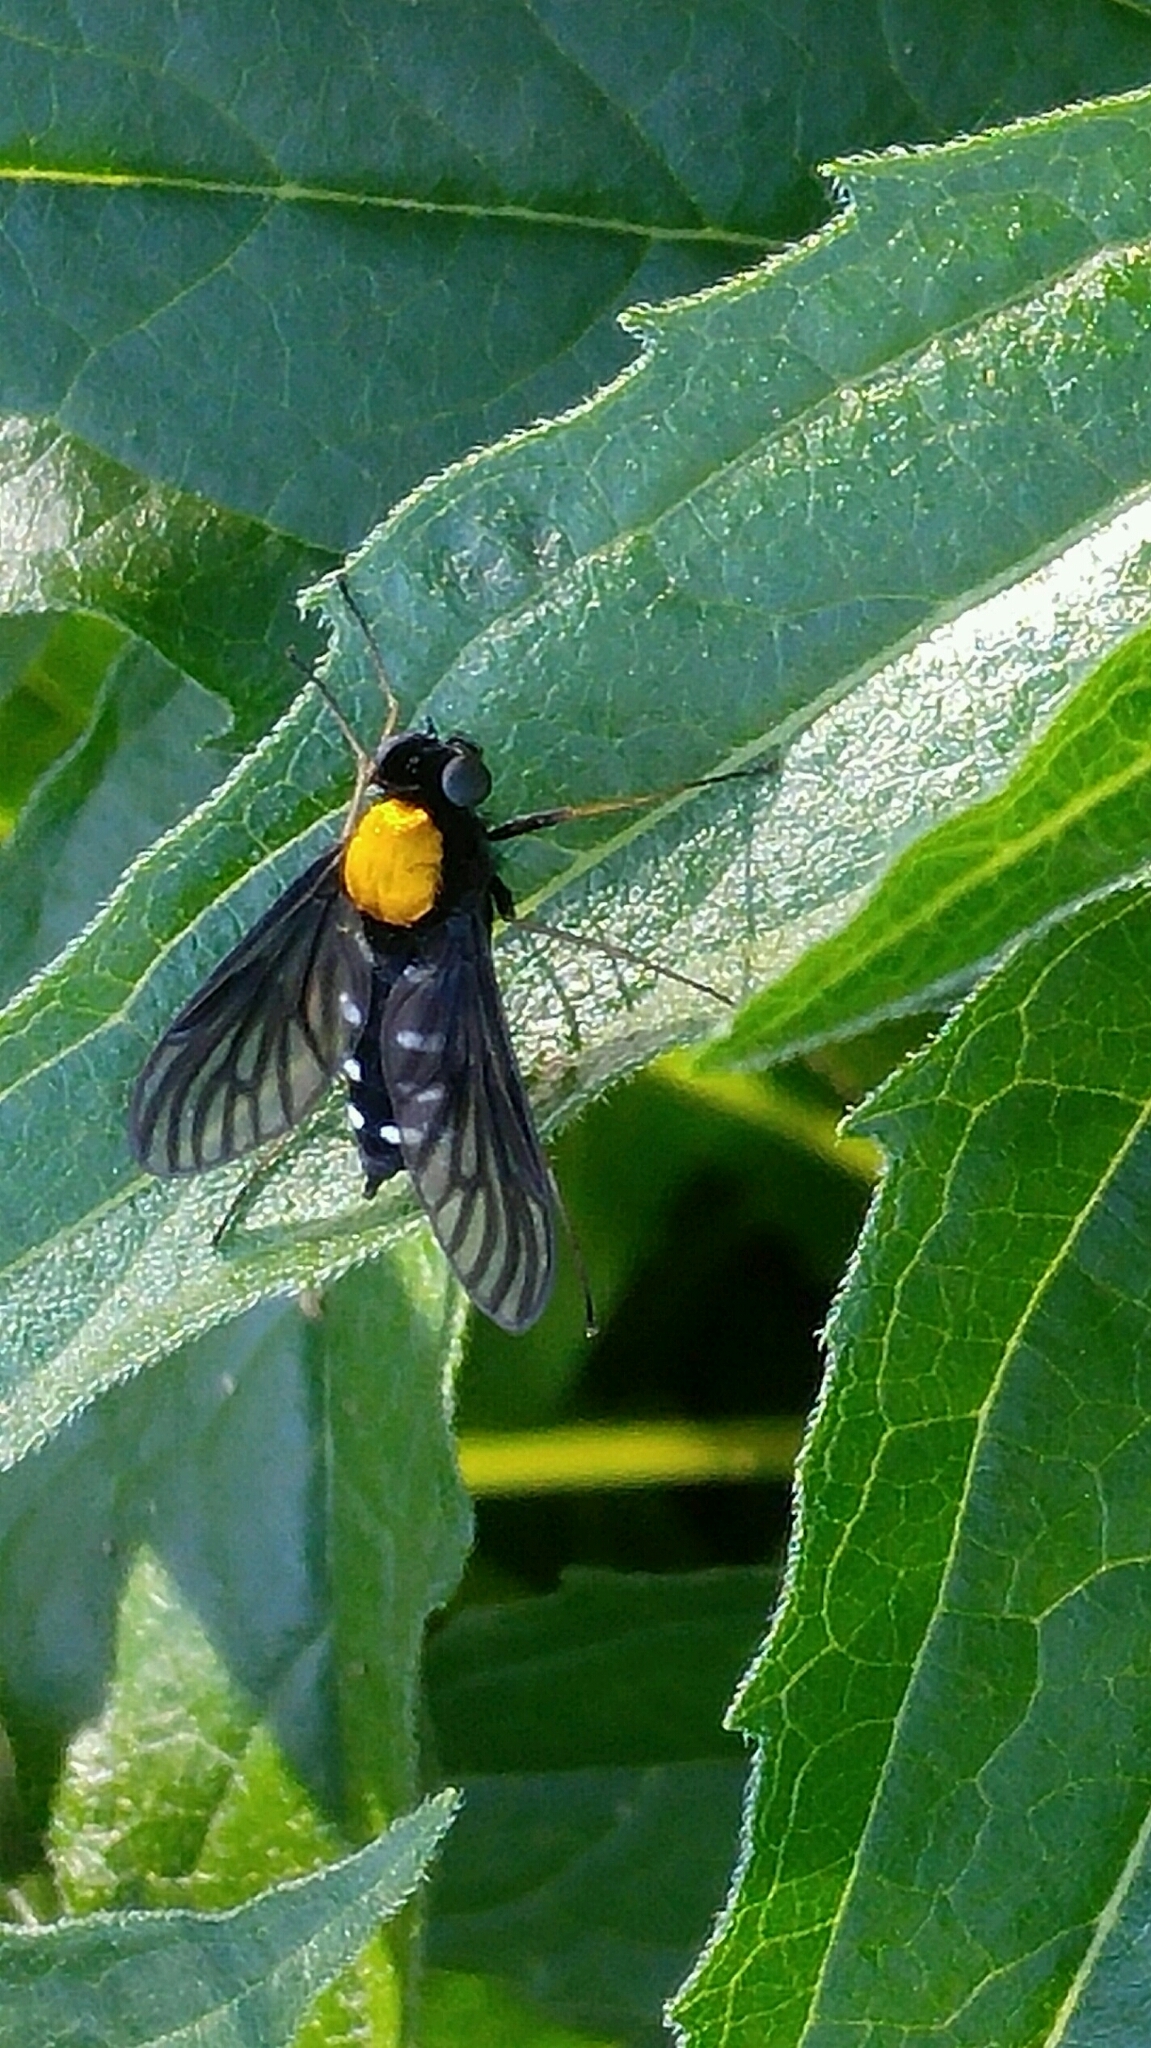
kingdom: Animalia
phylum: Arthropoda
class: Insecta
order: Diptera
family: Rhagionidae
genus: Chrysopilus
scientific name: Chrysopilus thoracicus
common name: Golden-backed snipe fly
